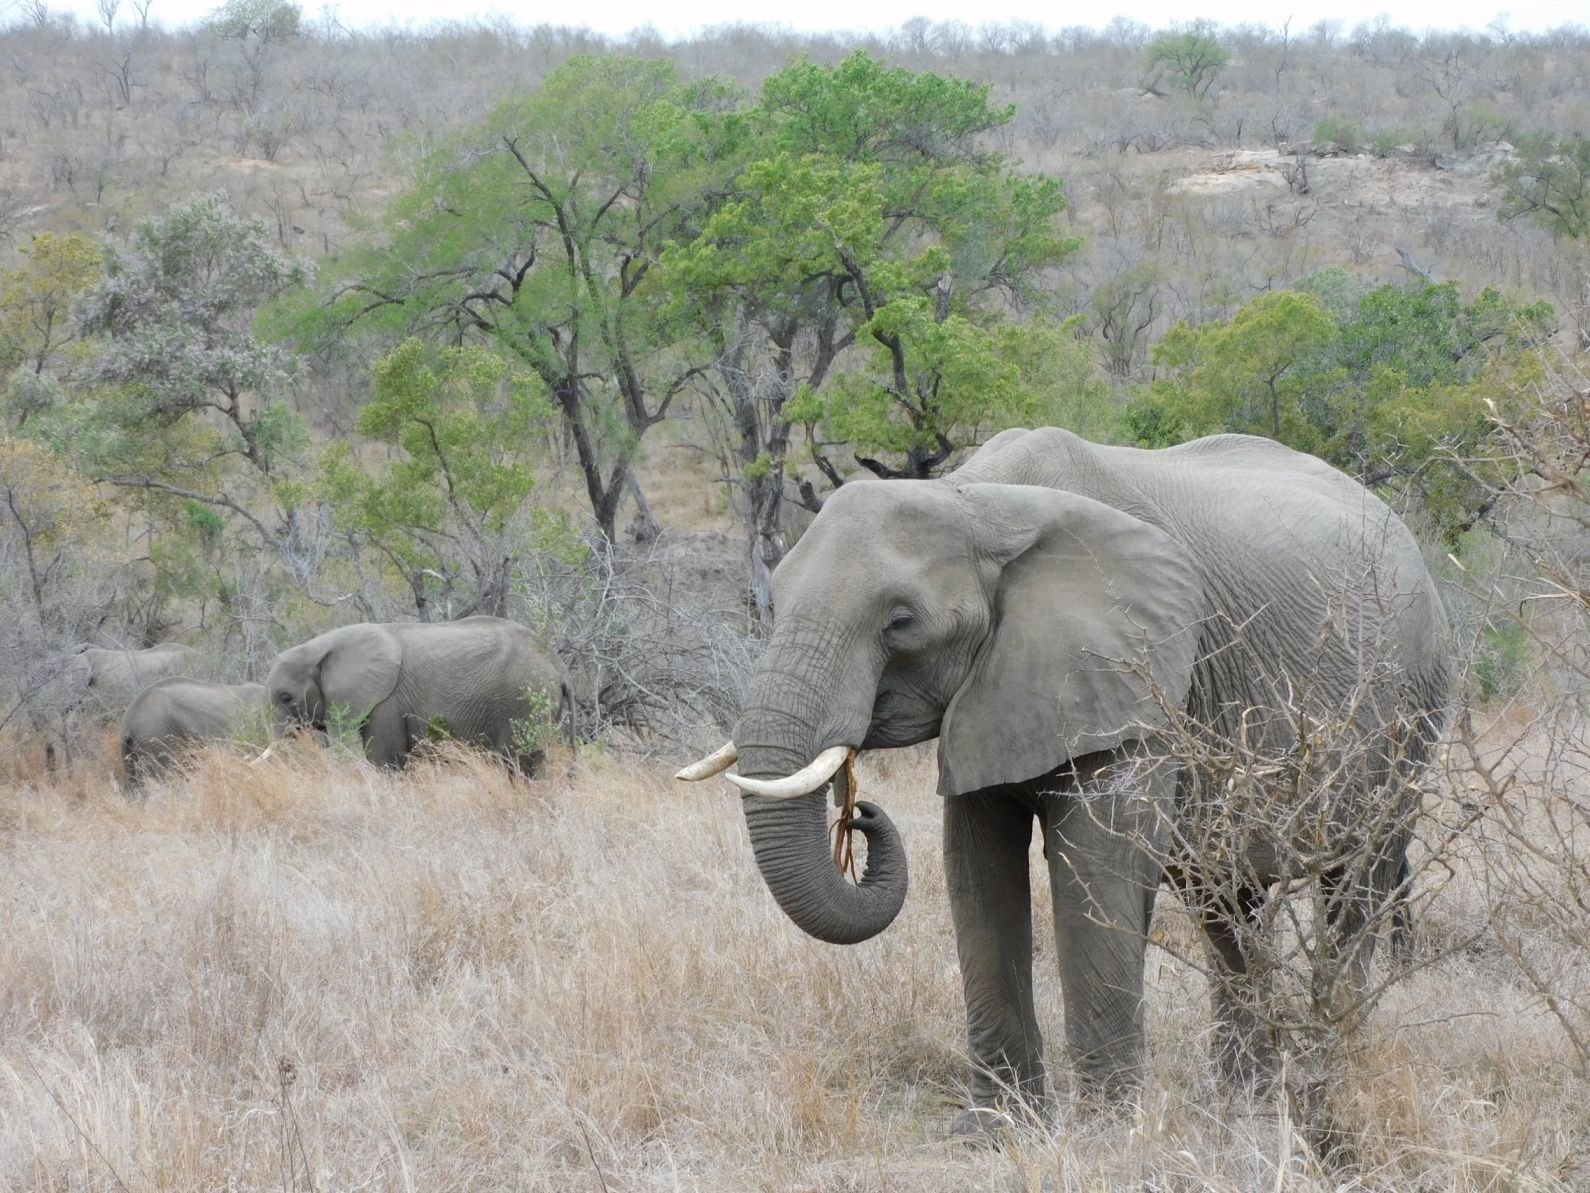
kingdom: Animalia
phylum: Chordata
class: Mammalia
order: Proboscidea
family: Elephantidae
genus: Loxodonta
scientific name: Loxodonta africana
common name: African elephant
